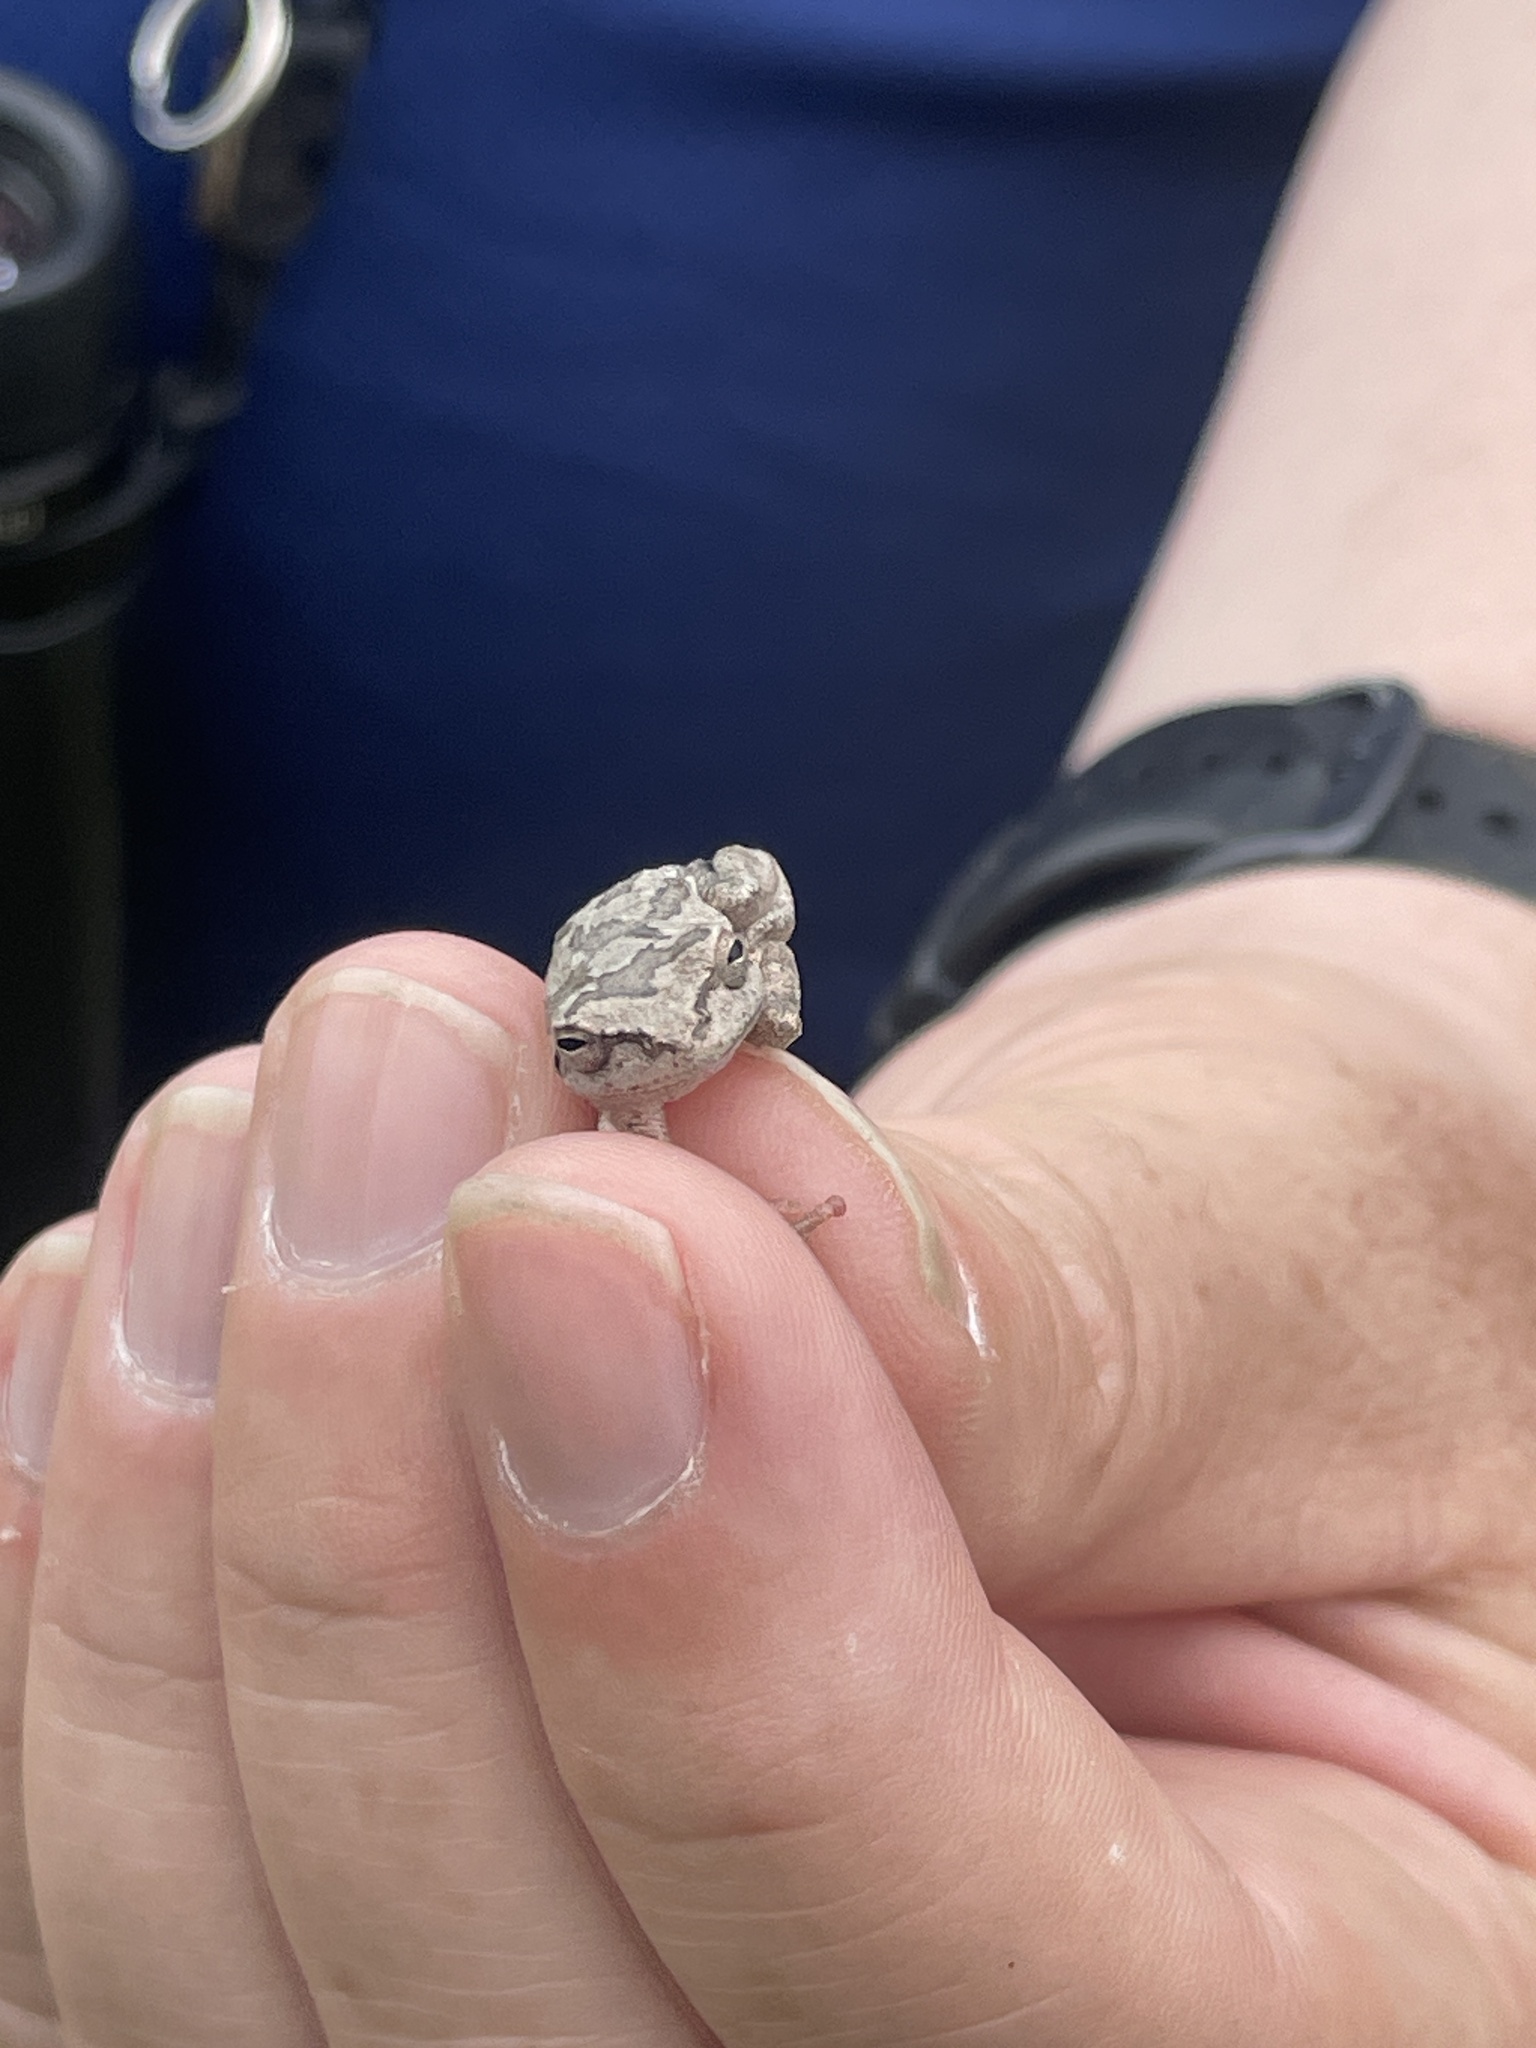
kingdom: Animalia
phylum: Chordata
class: Amphibia
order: Anura
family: Hylidae
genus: Hyla
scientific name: Hyla femoralis
